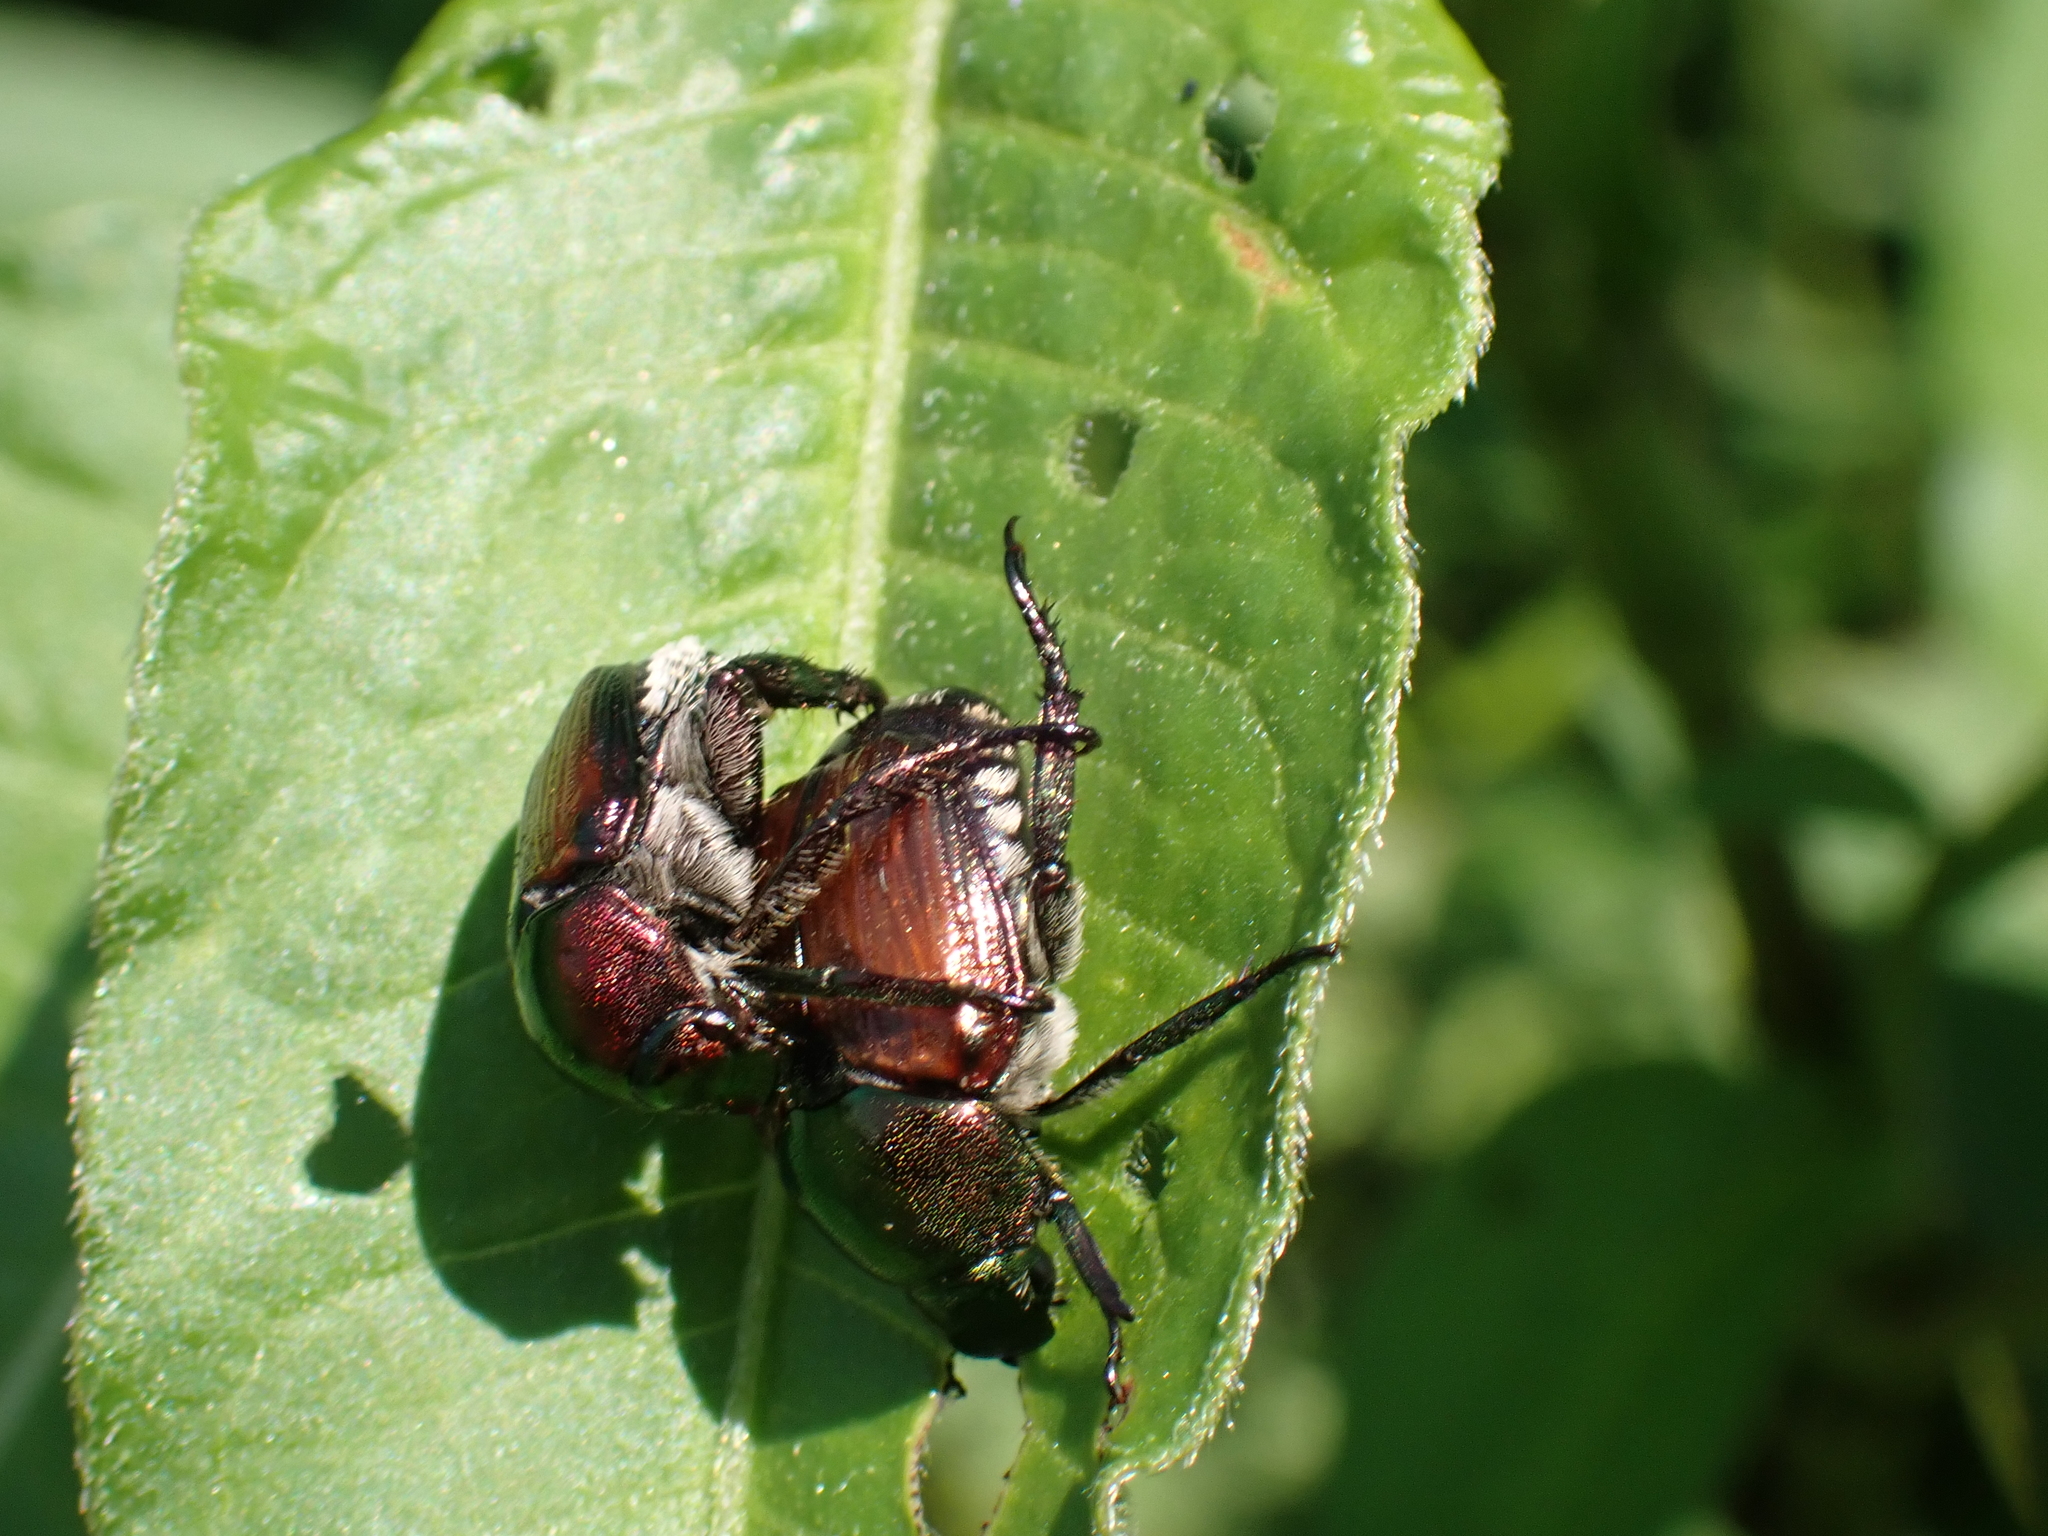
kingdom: Animalia
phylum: Arthropoda
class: Insecta
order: Coleoptera
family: Scarabaeidae
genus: Popillia
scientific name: Popillia japonica
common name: Japanese beetle
